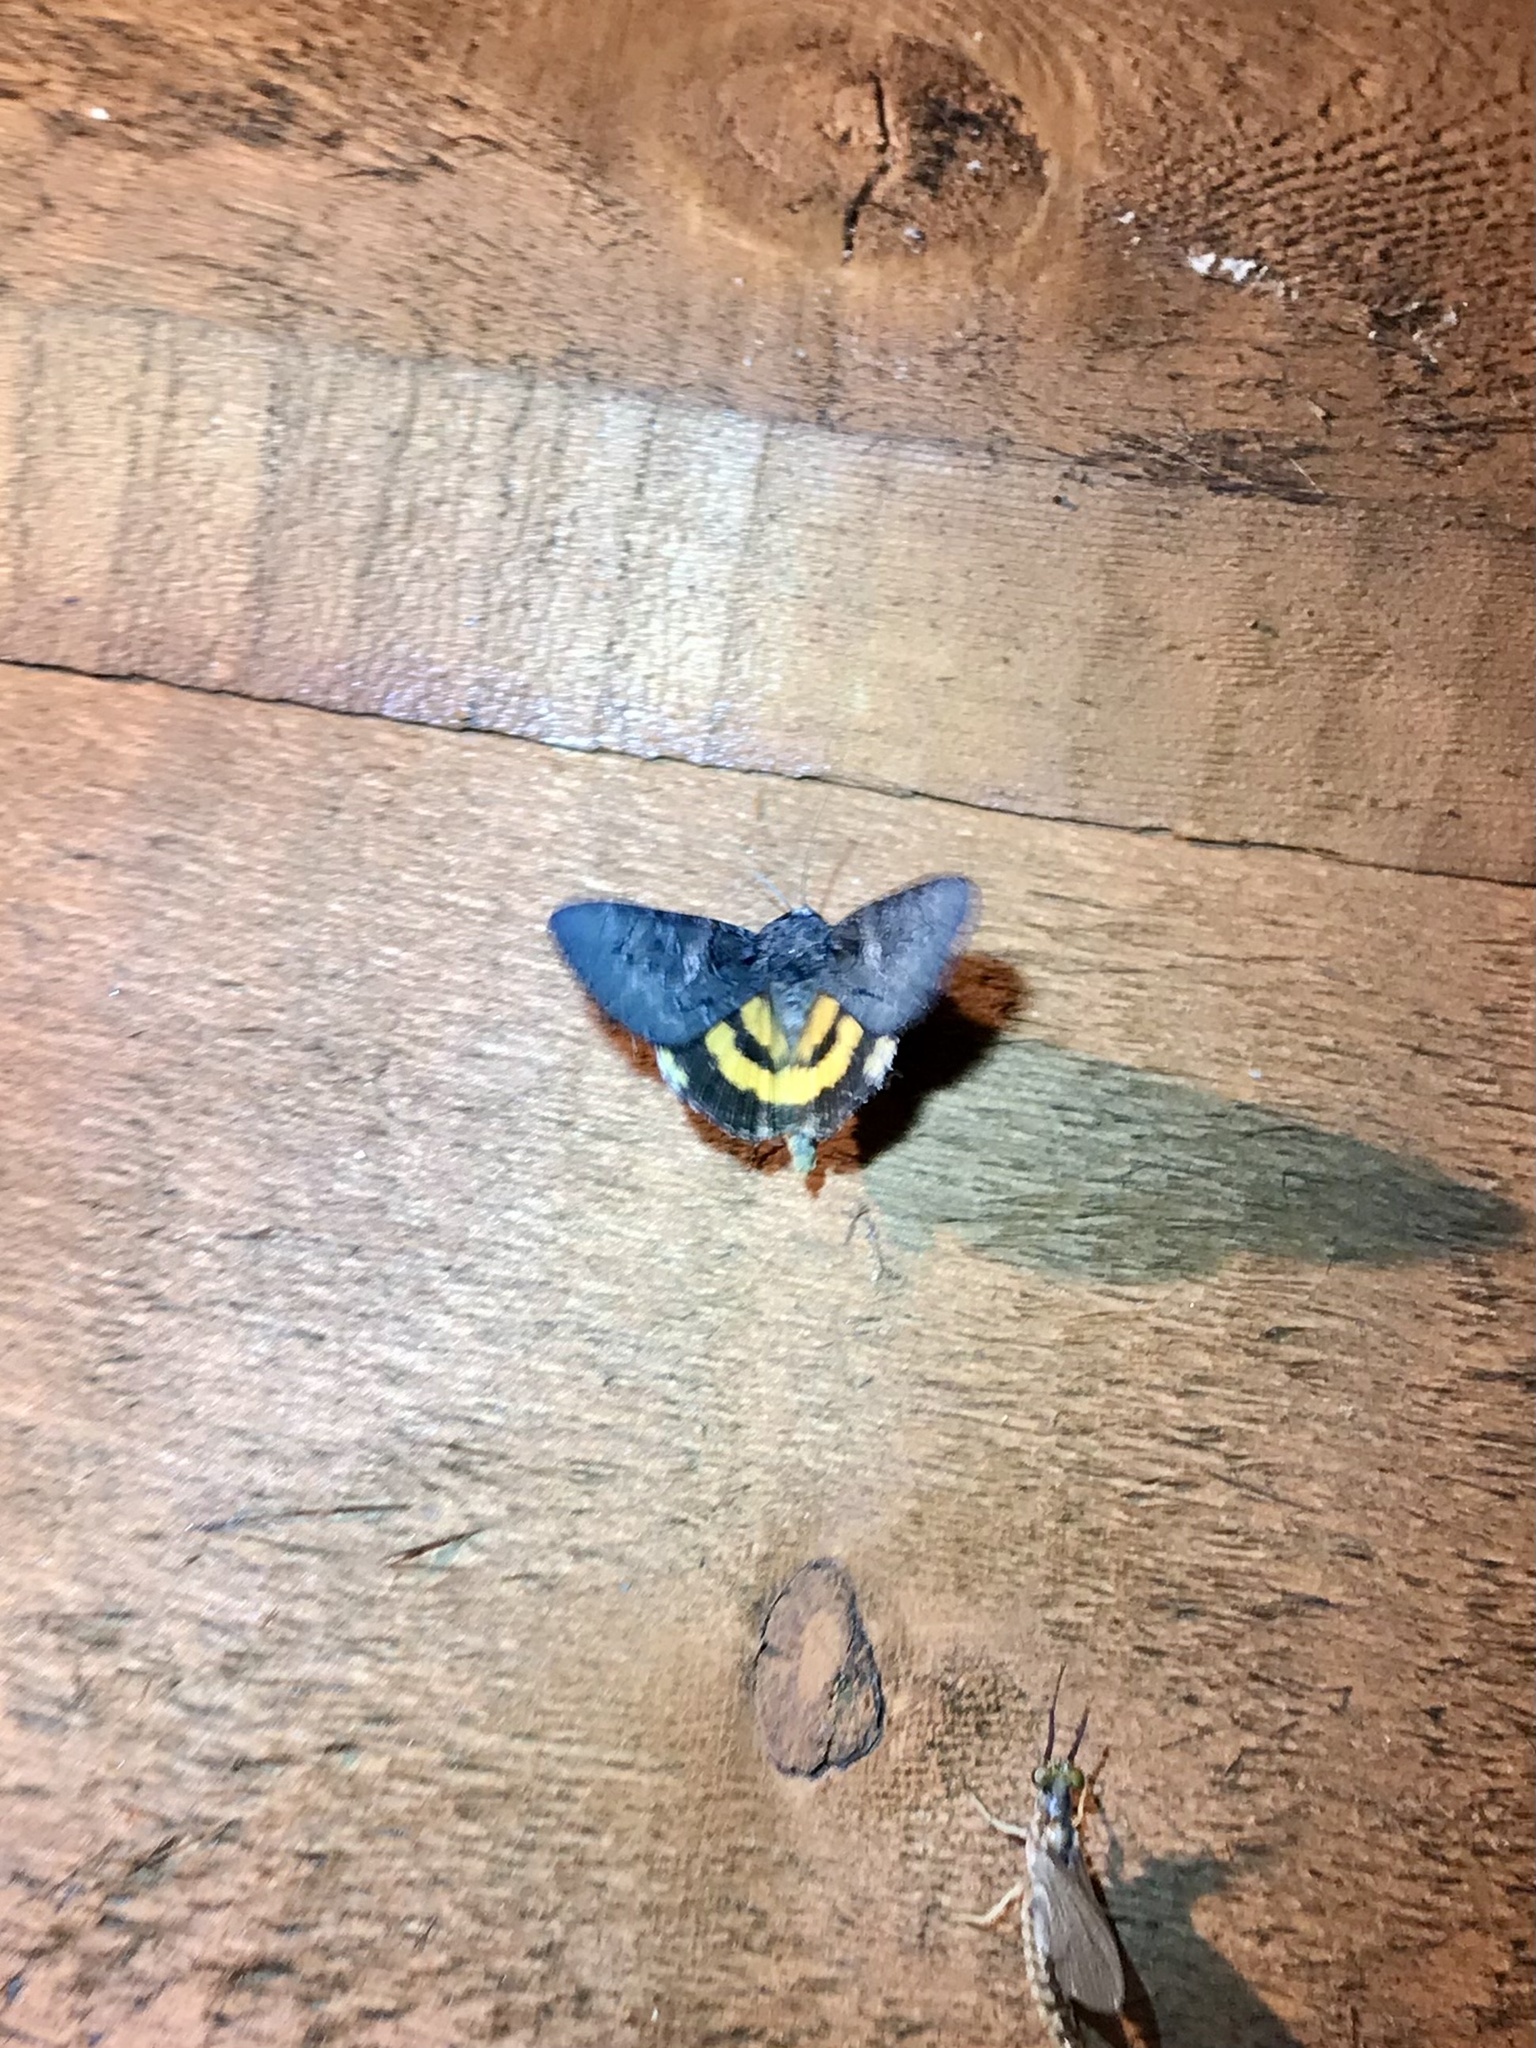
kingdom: Animalia
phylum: Arthropoda
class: Insecta
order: Lepidoptera
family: Erebidae
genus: Catocala
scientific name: Catocala antinympha
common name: Sweetfern underwing
